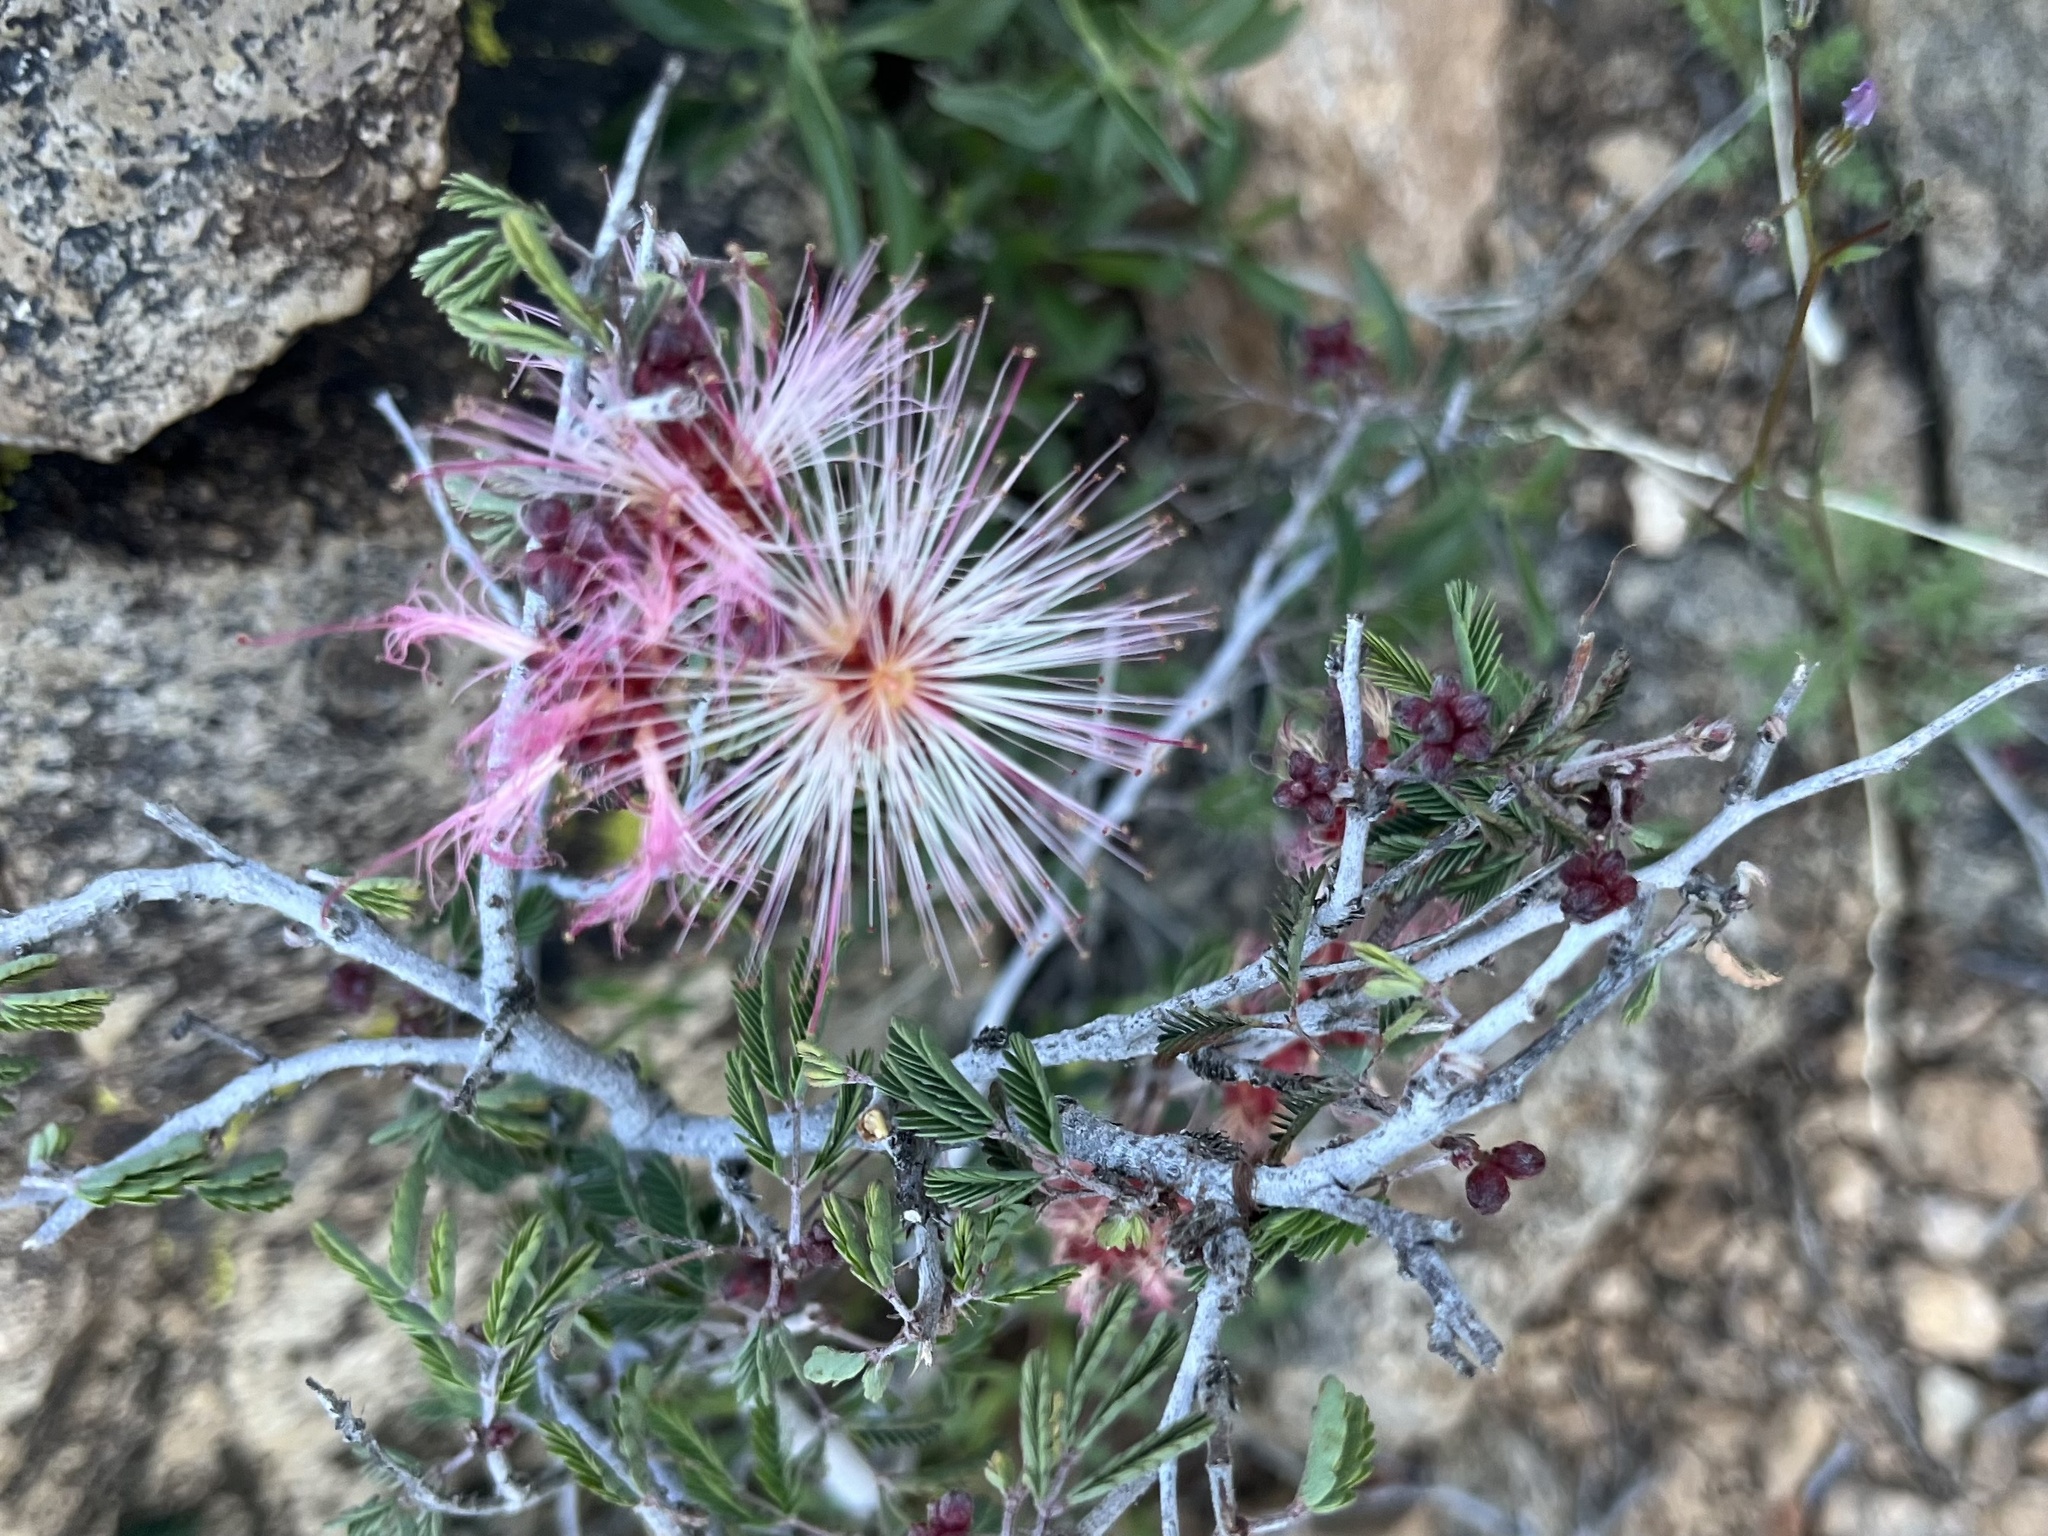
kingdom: Plantae
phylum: Tracheophyta
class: Magnoliopsida
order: Fabales
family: Fabaceae
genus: Calliandra
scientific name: Calliandra eriophylla
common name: Fairy-duster
